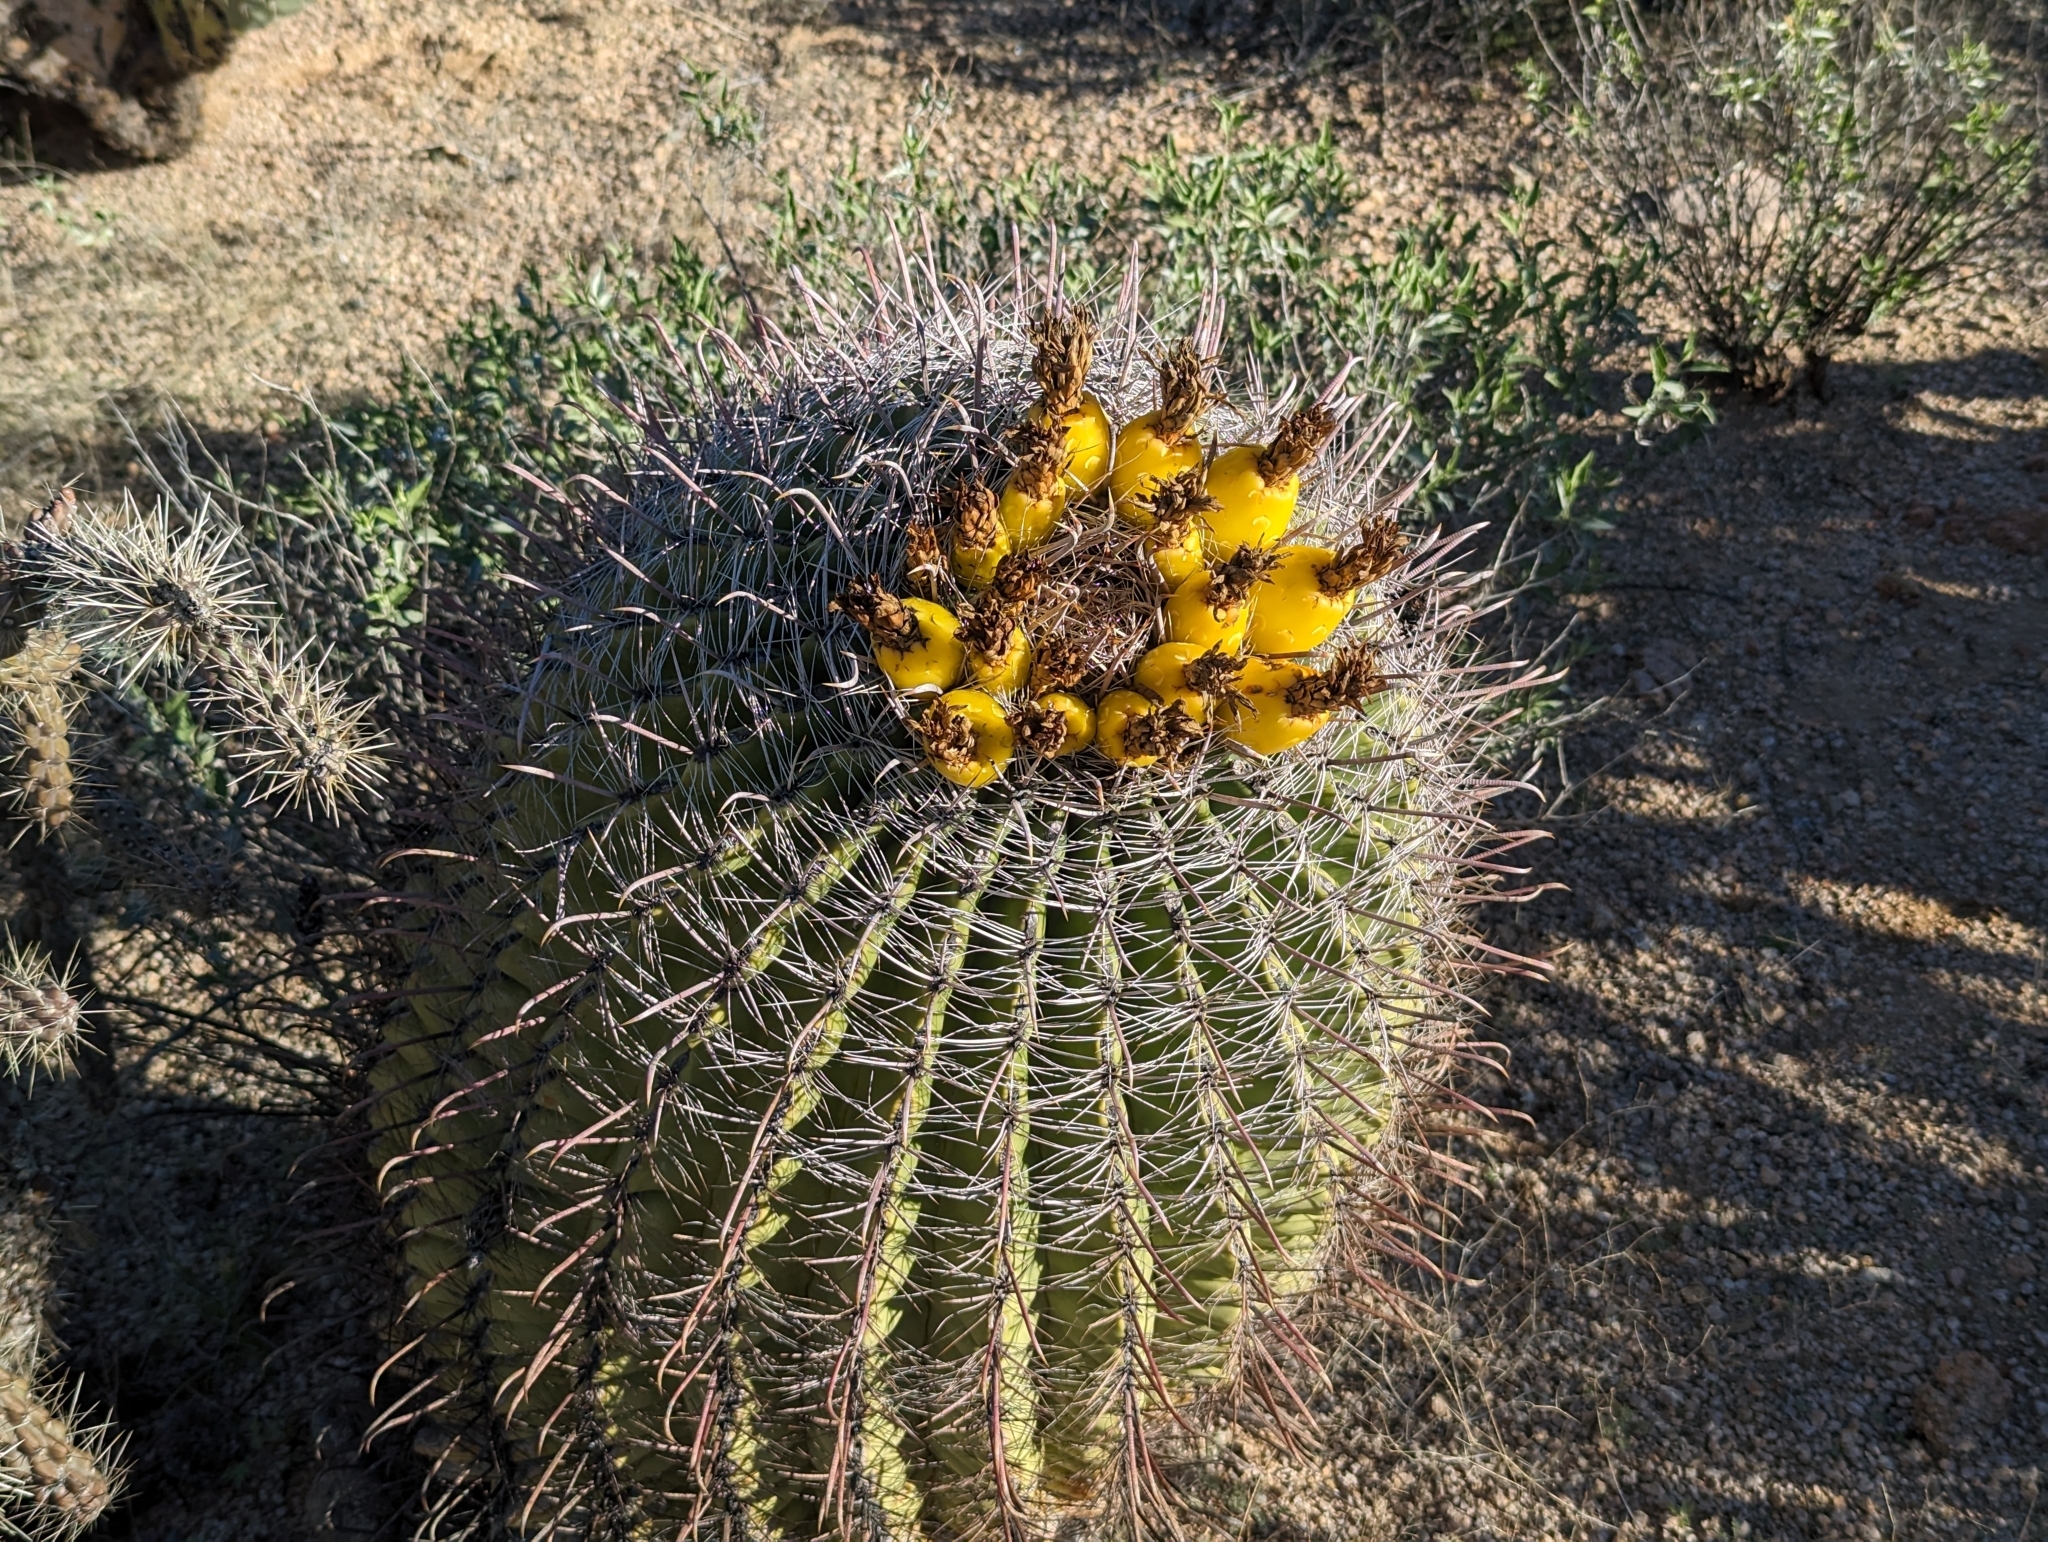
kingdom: Plantae
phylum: Tracheophyta
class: Magnoliopsida
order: Caryophyllales
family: Cactaceae
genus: Ferocactus
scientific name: Ferocactus wislizeni
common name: Candy barrel cactus
